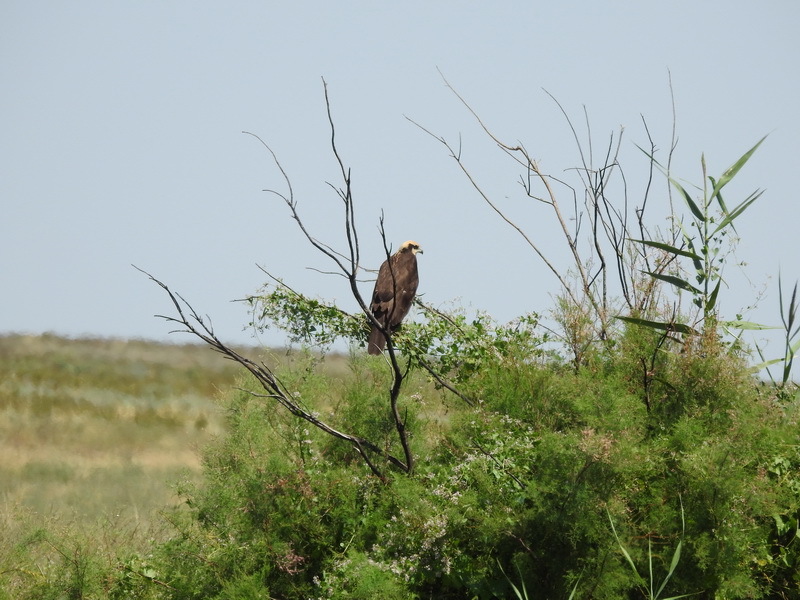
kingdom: Animalia
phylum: Chordata
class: Aves
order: Accipitriformes
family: Accipitridae
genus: Circus
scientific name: Circus aeruginosus
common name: Western marsh harrier
